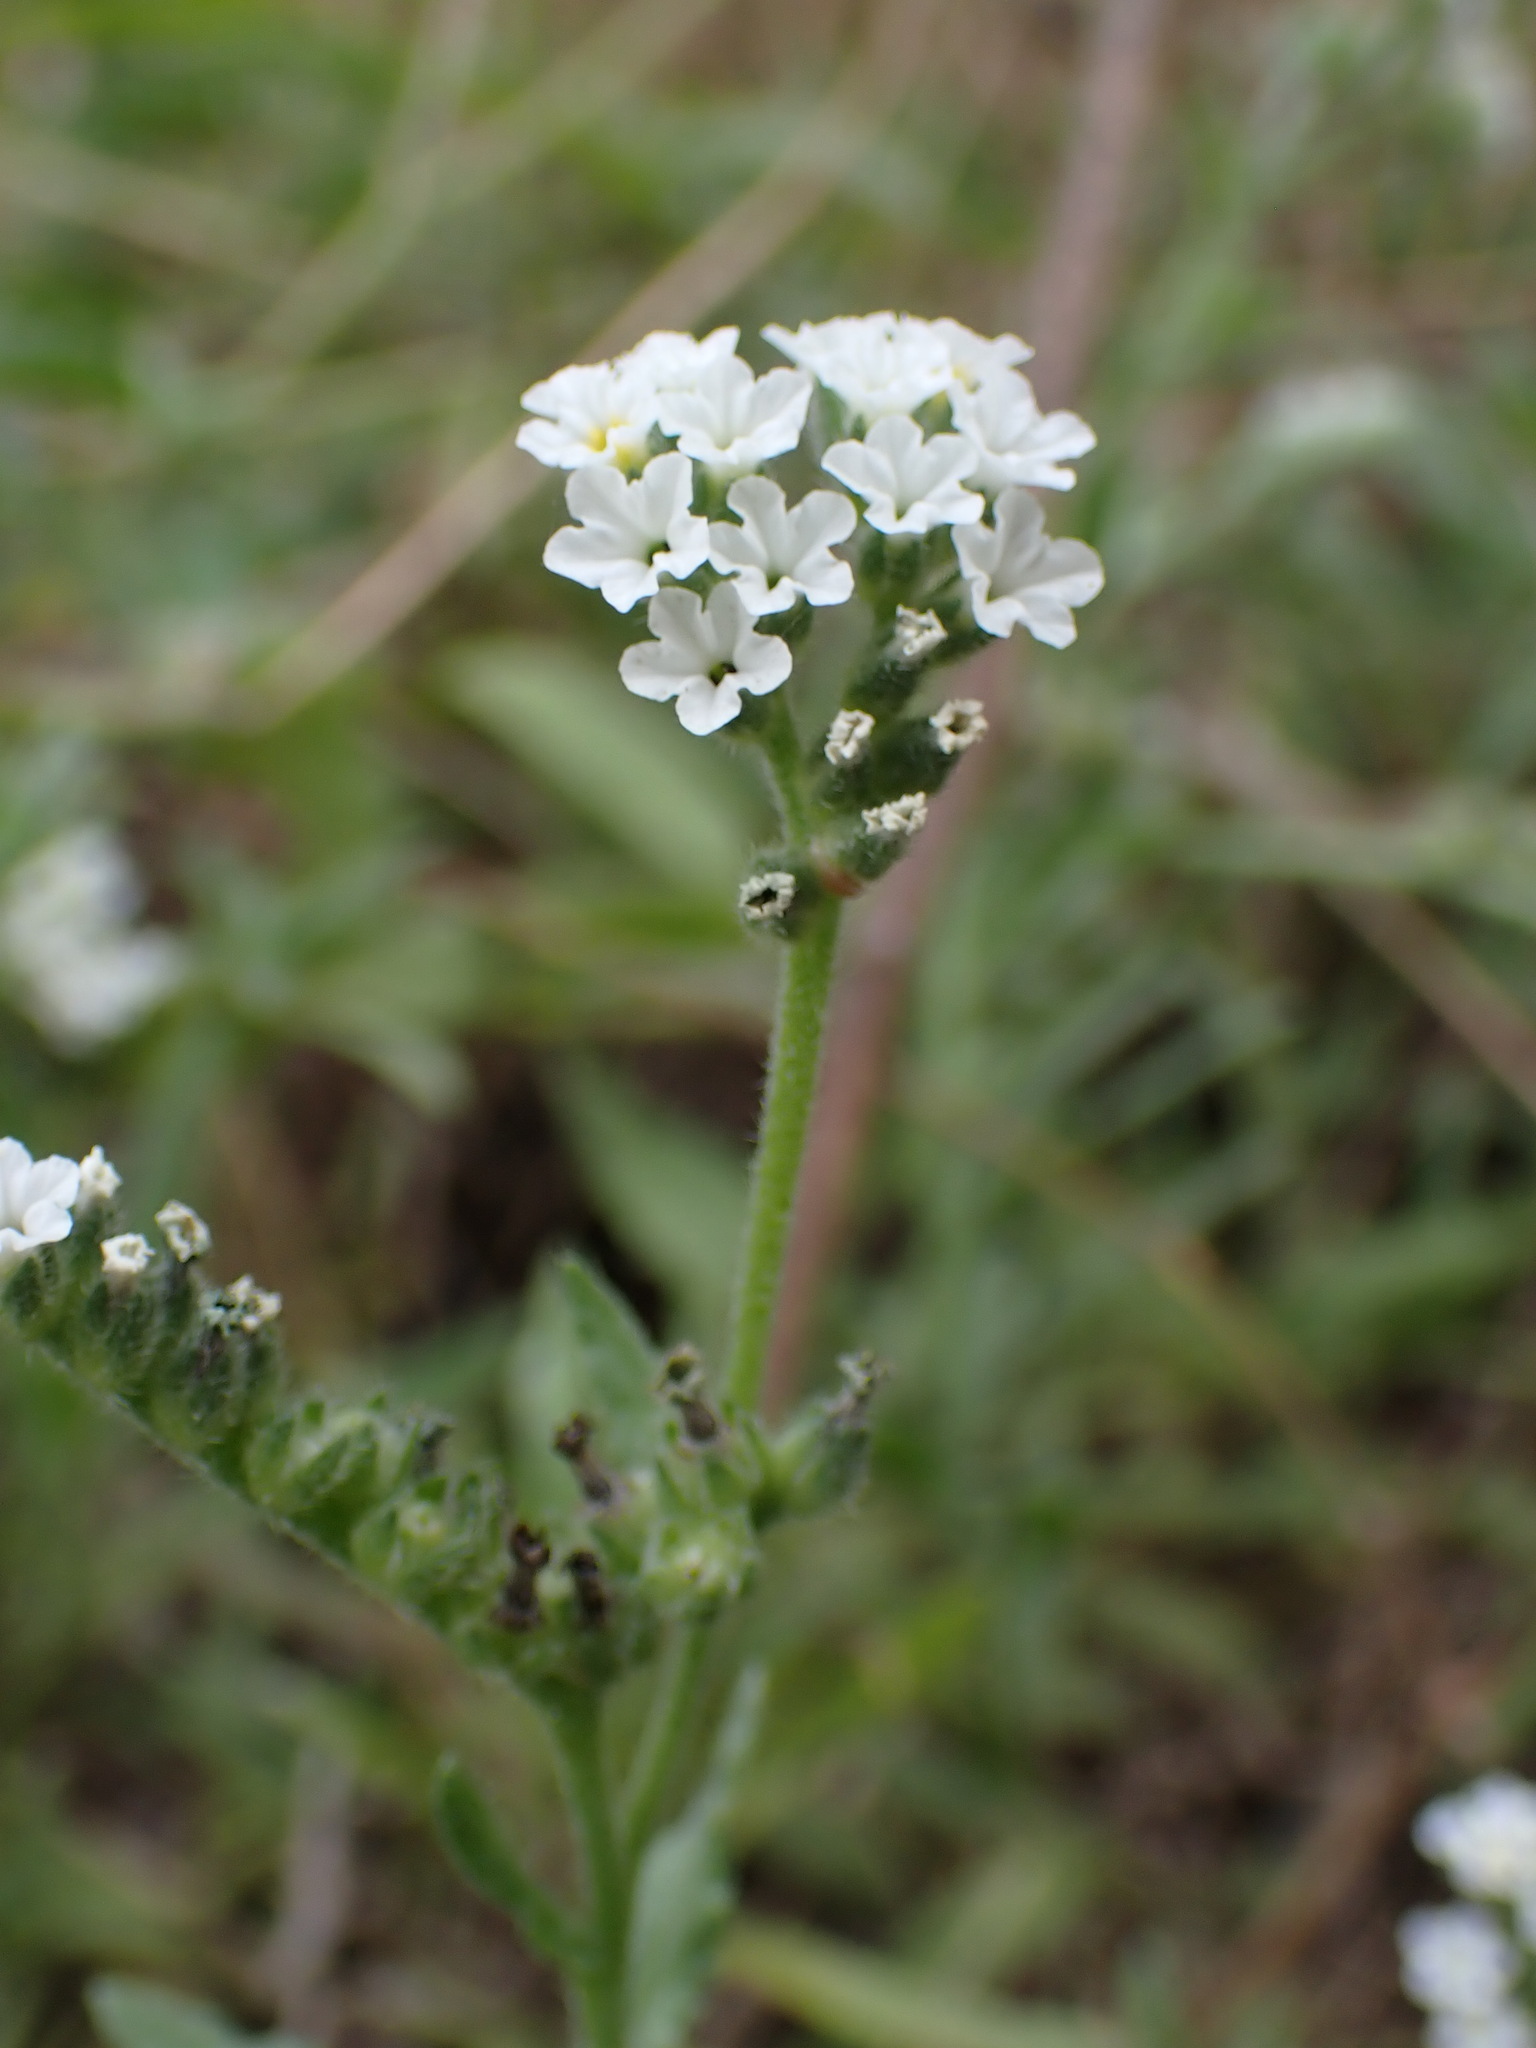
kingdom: Plantae
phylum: Tracheophyta
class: Magnoliopsida
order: Boraginales
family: Heliotropiaceae
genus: Heliotropium
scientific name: Heliotropium ramosissimum
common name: Wavy heliotrope
